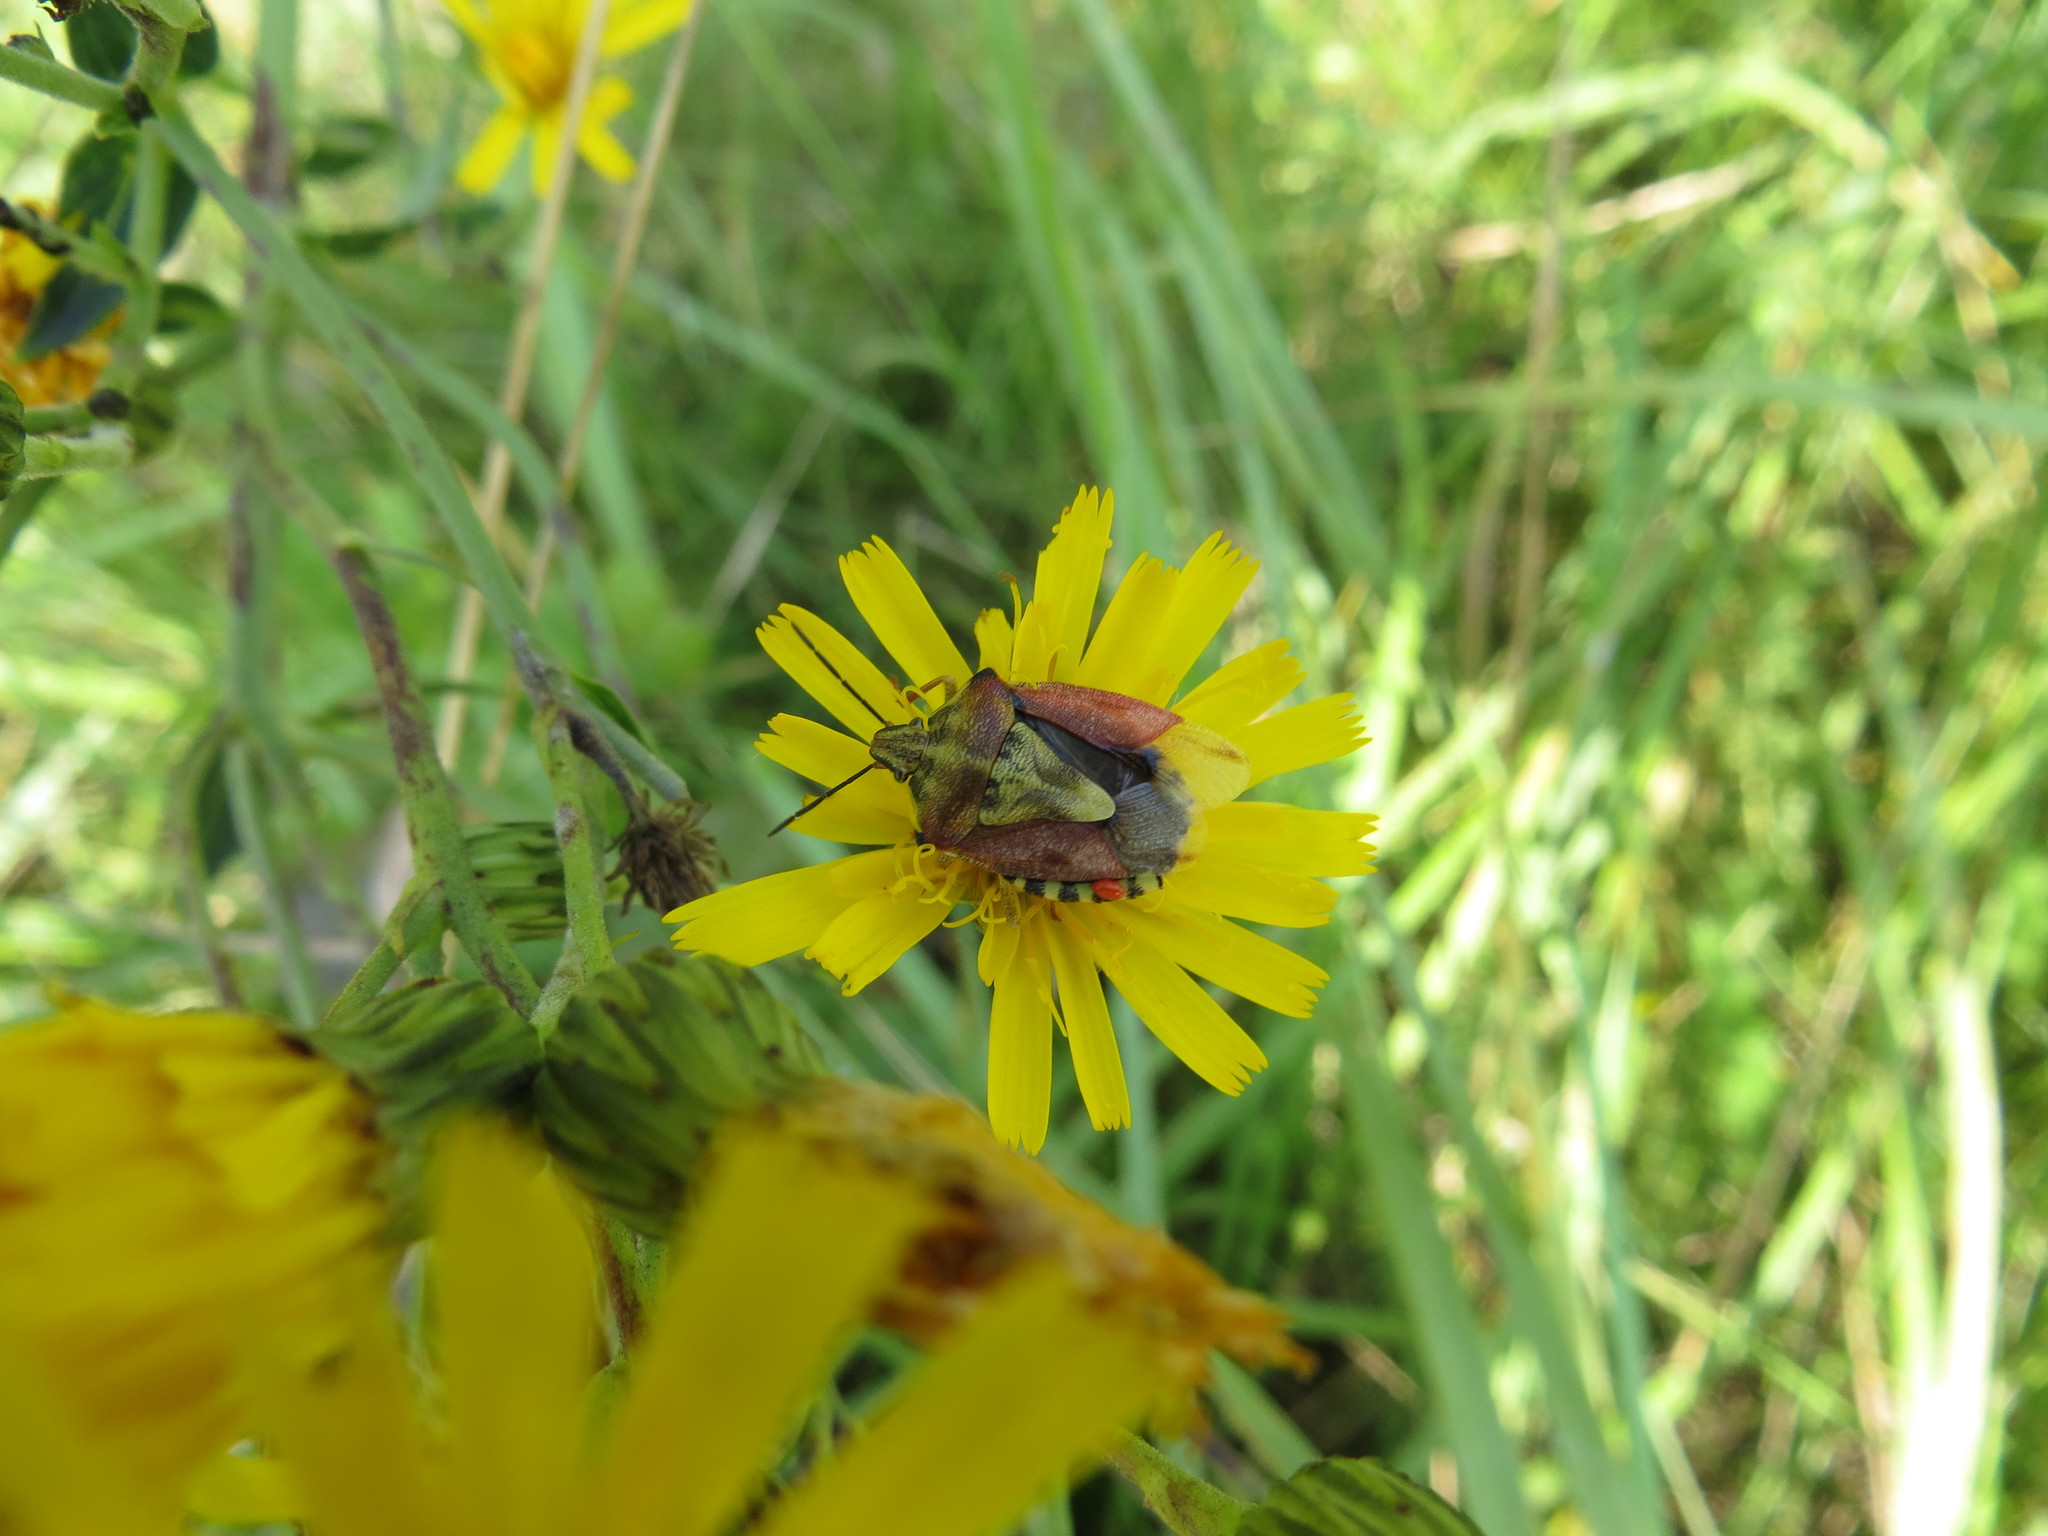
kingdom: Animalia
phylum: Arthropoda
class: Insecta
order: Hemiptera
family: Pentatomidae
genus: Carpocoris
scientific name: Carpocoris purpureipennis
